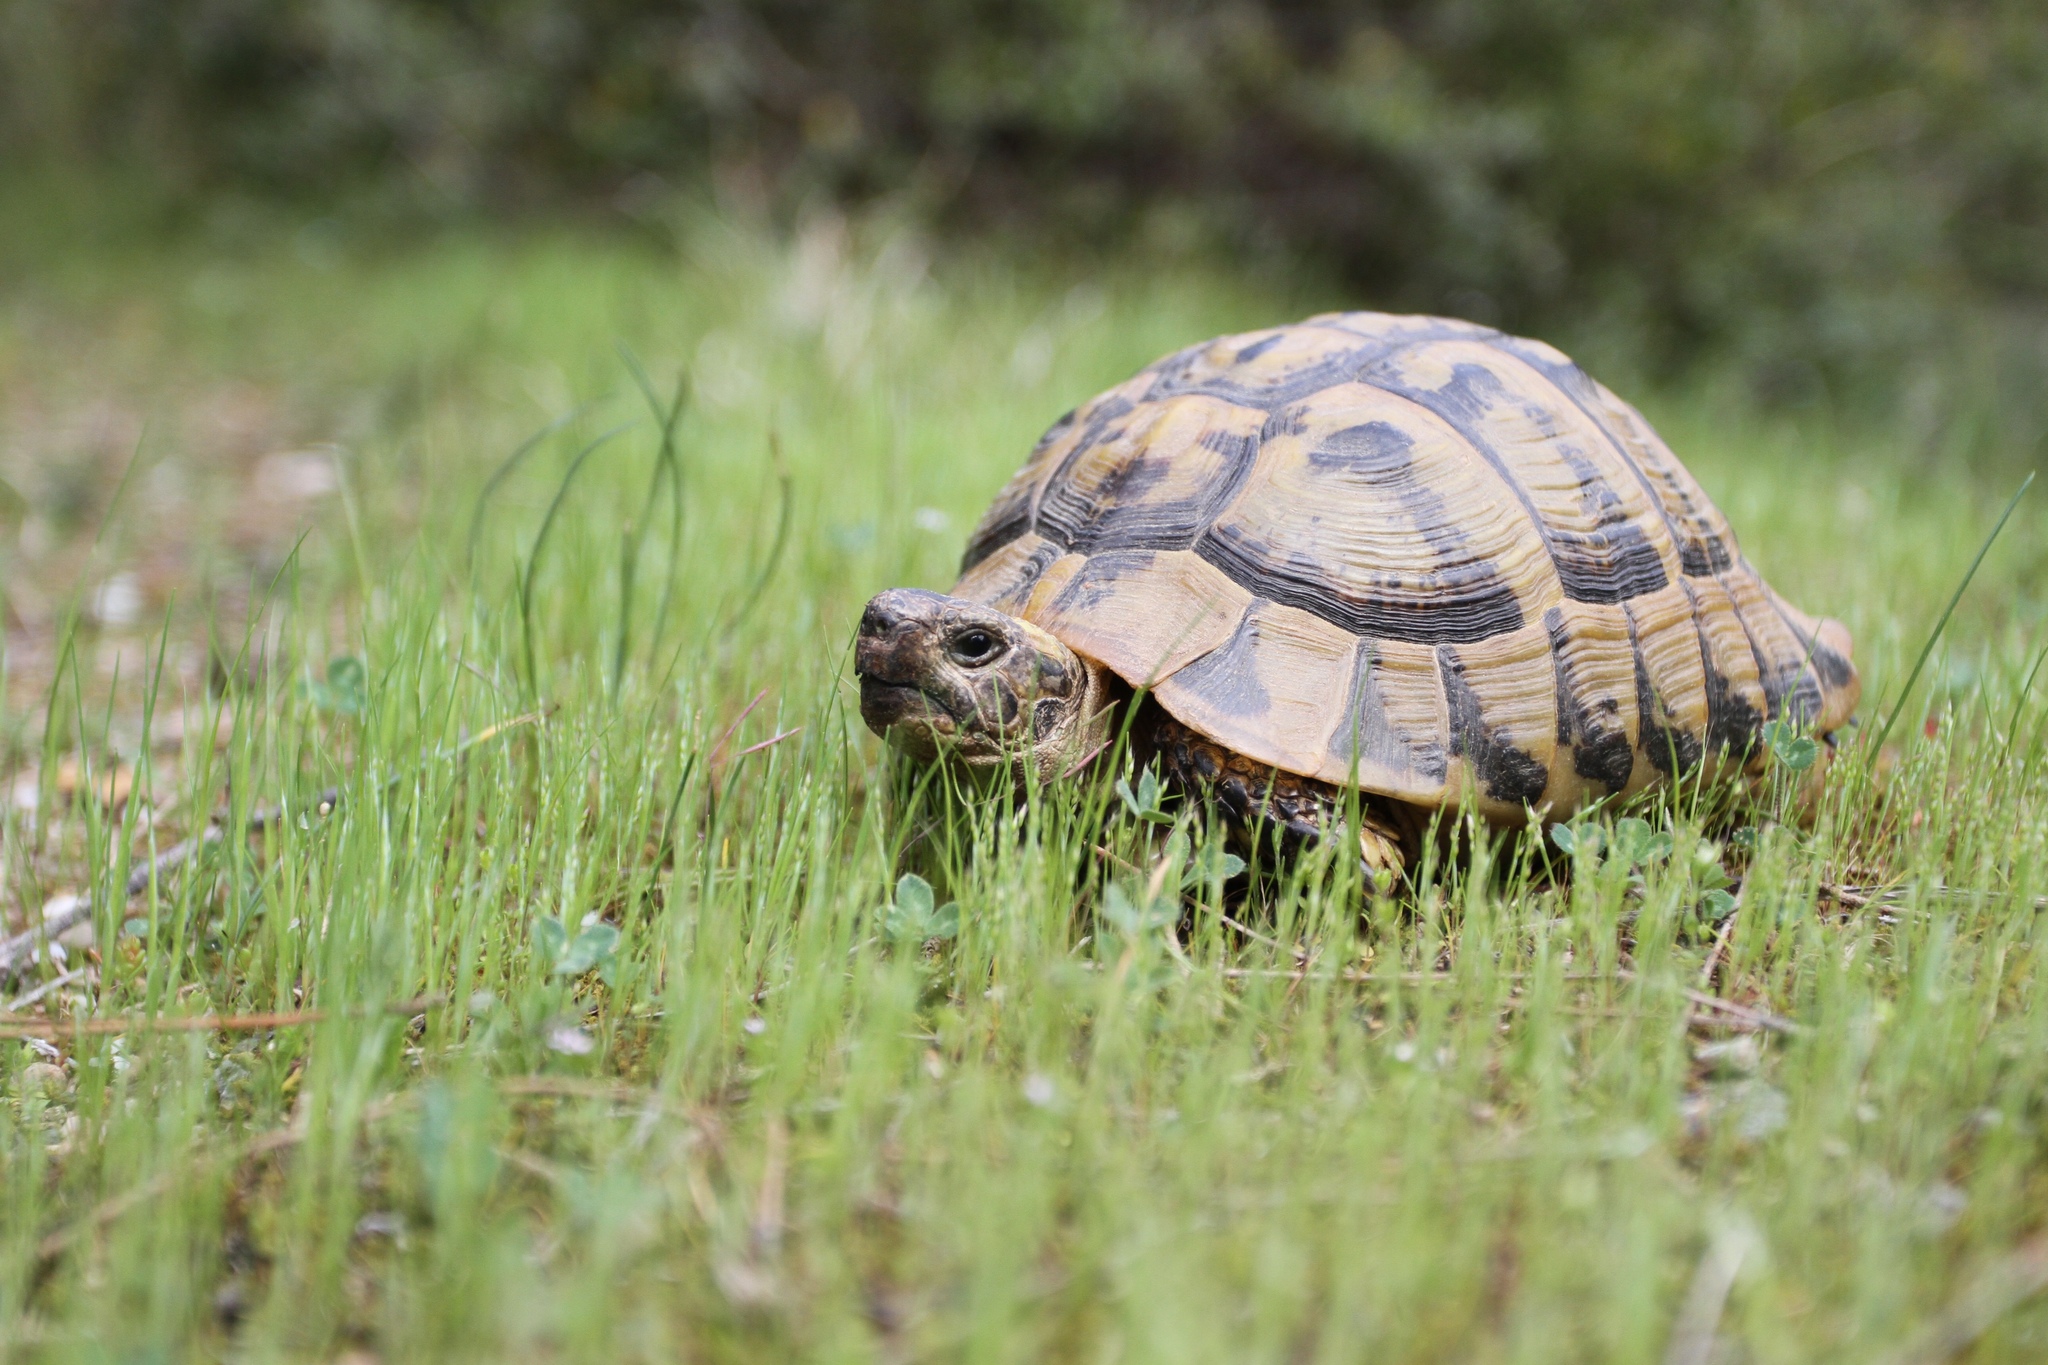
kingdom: Animalia
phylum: Chordata
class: Testudines
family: Testudinidae
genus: Testudo
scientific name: Testudo hermanni
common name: Hermann's tortoise
